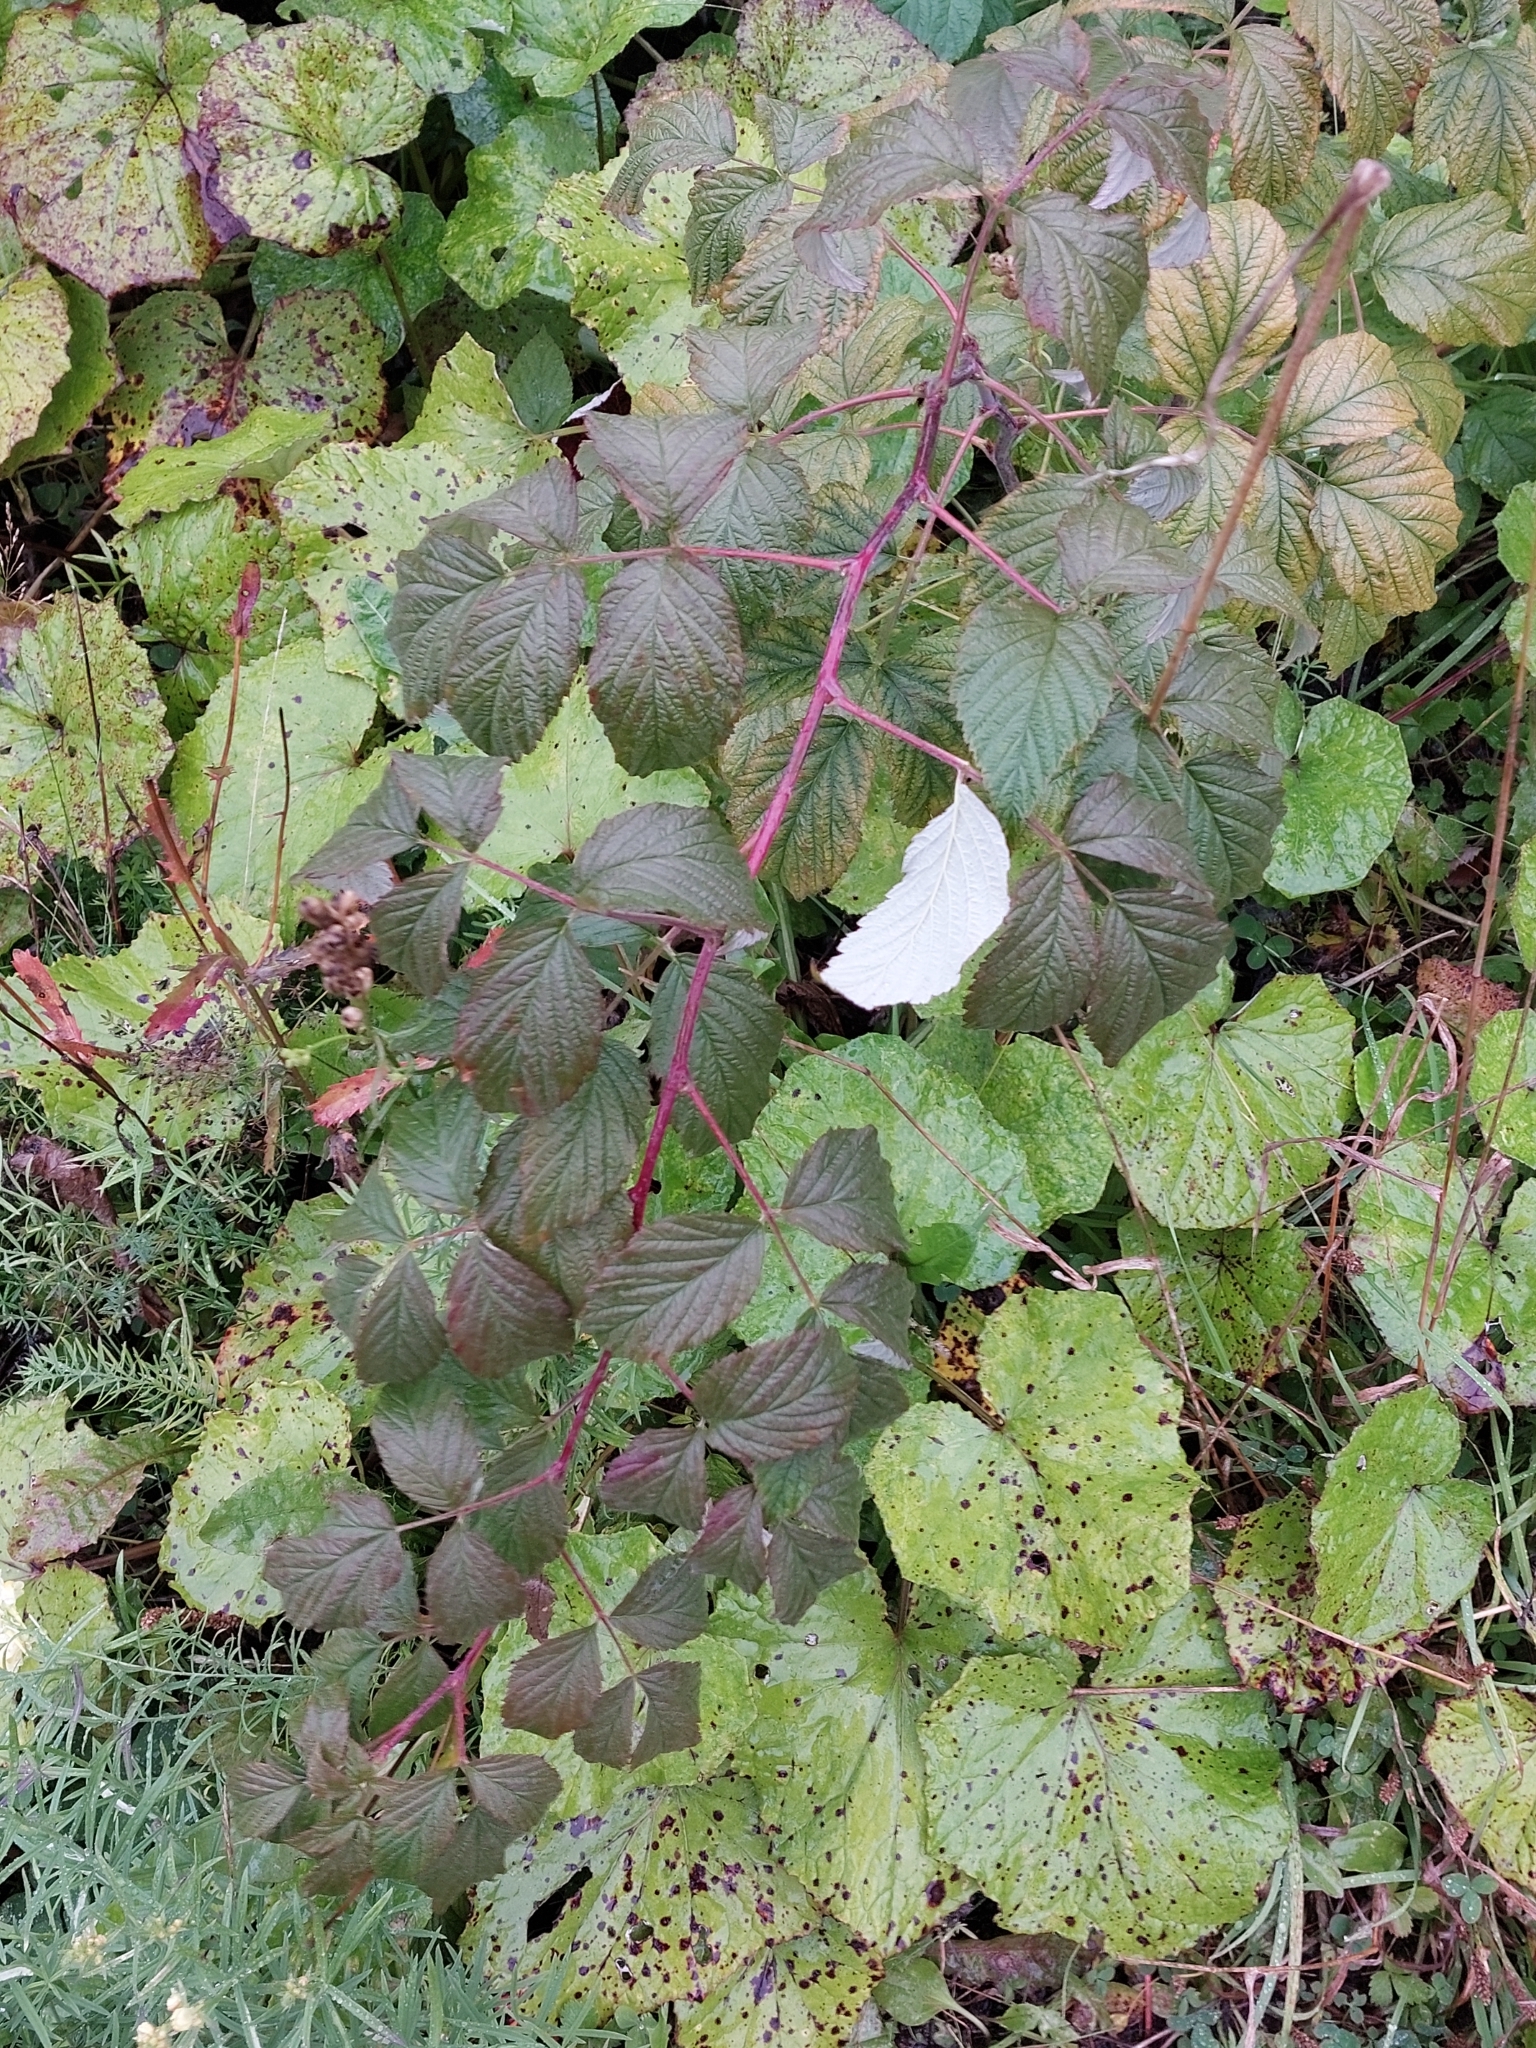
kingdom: Plantae
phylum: Tracheophyta
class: Magnoliopsida
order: Rosales
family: Rosaceae
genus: Rubus
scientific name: Rubus idaeus
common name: Raspberry
